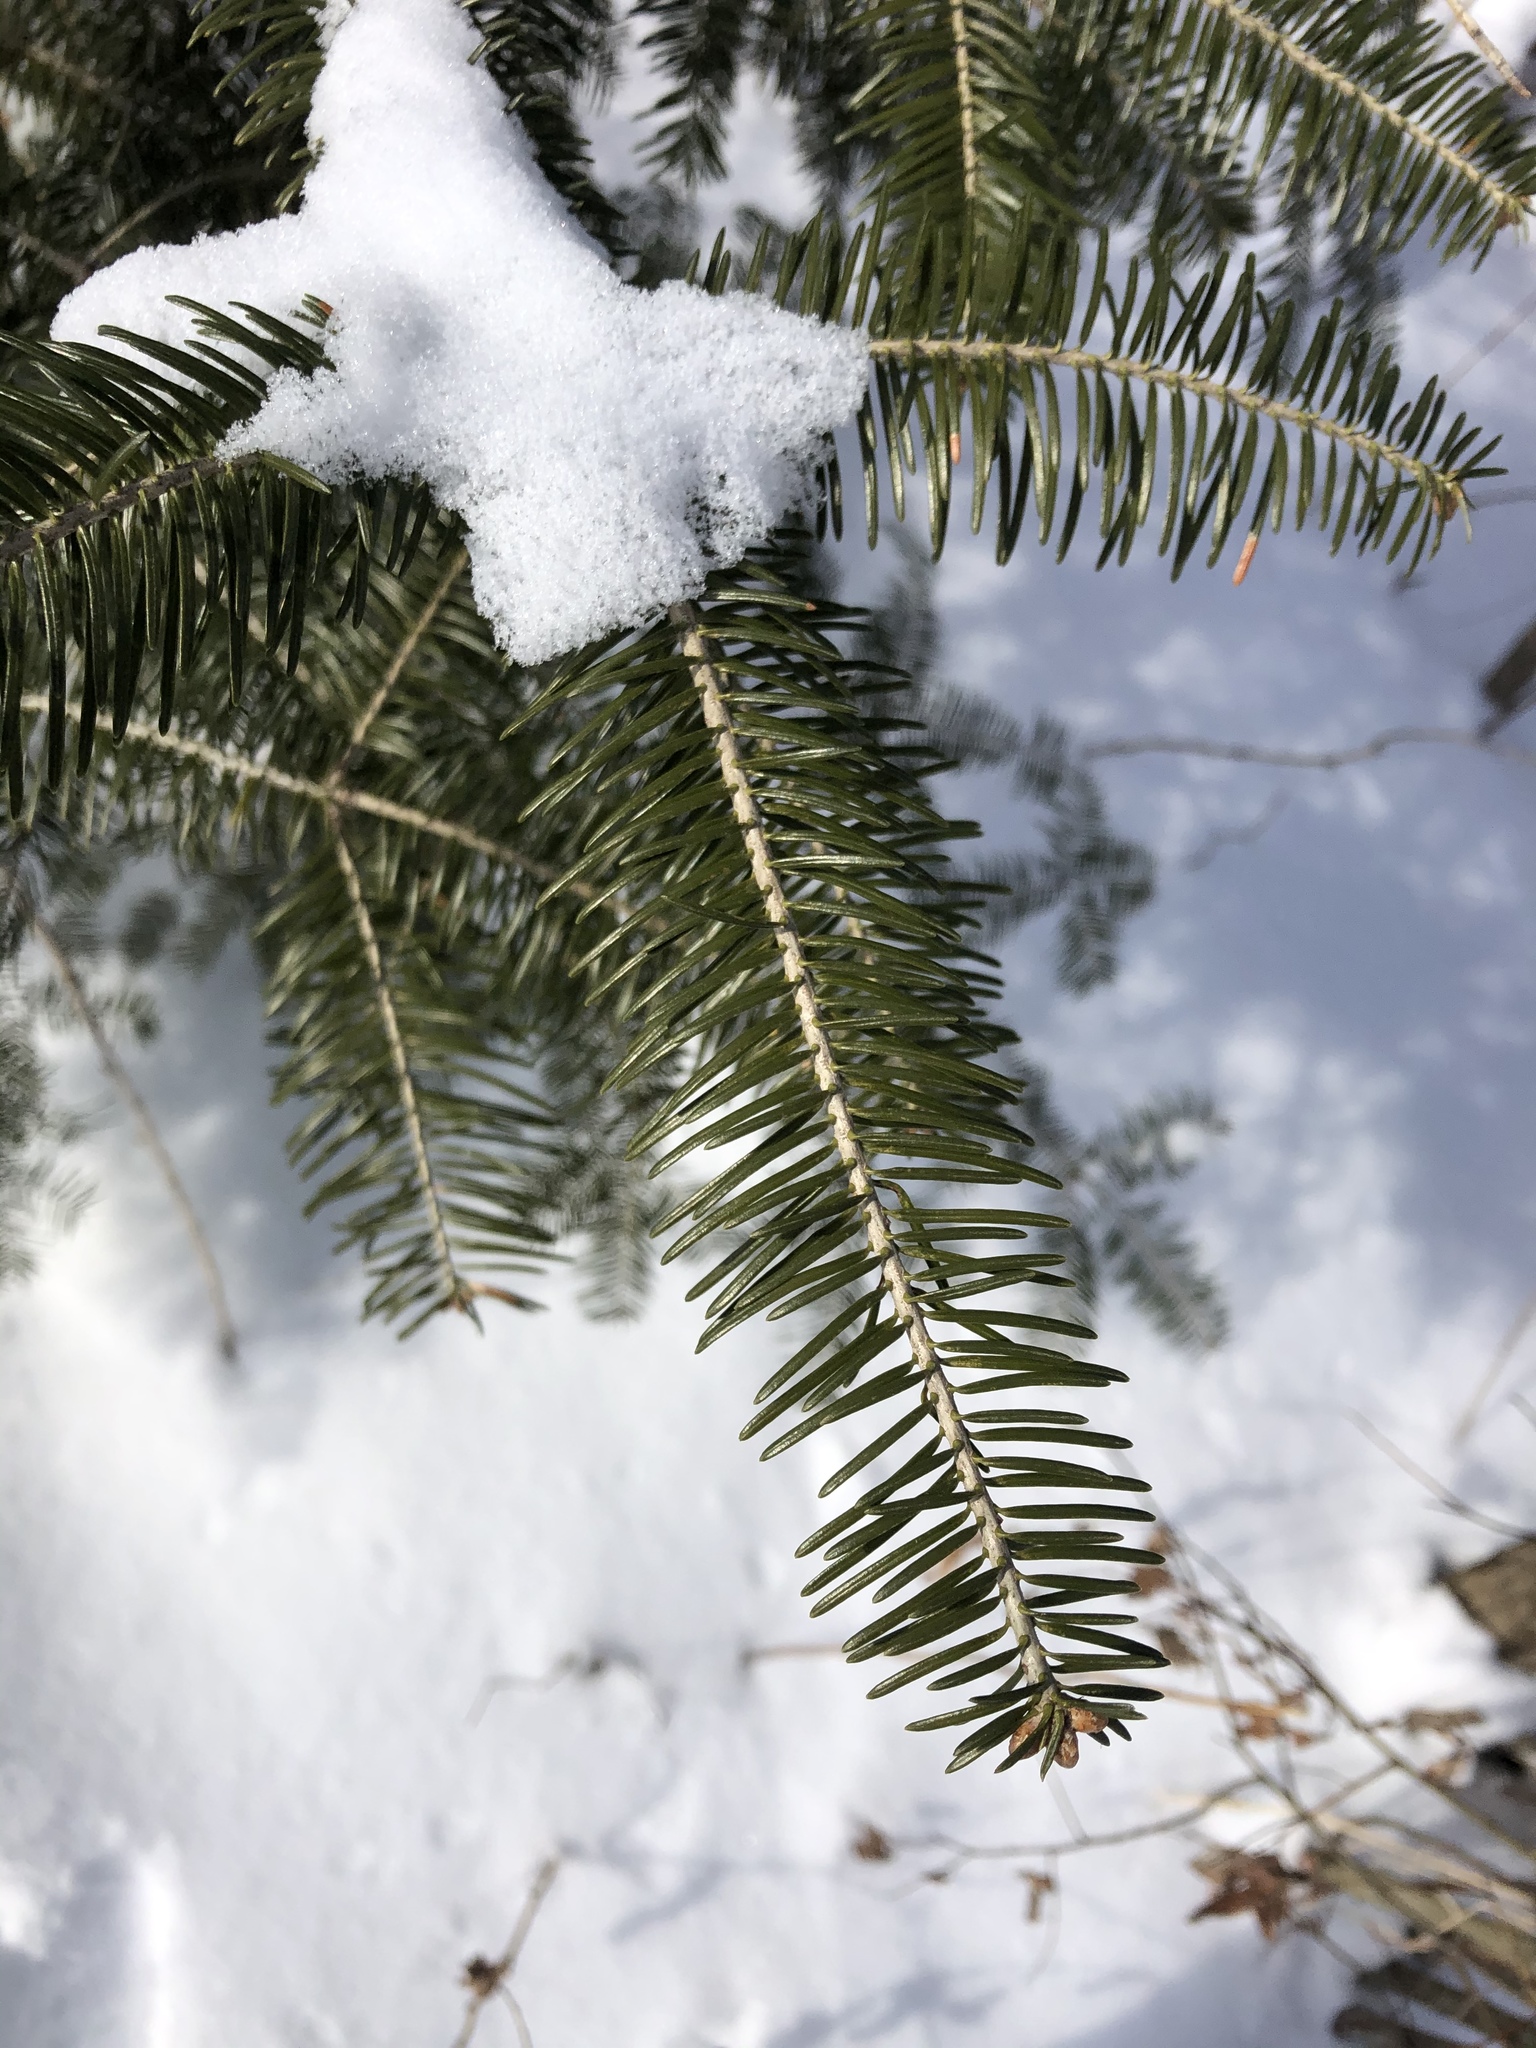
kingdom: Plantae
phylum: Tracheophyta
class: Pinopsida
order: Pinales
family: Pinaceae
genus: Abies
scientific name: Abies balsamea
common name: Balsam fir
